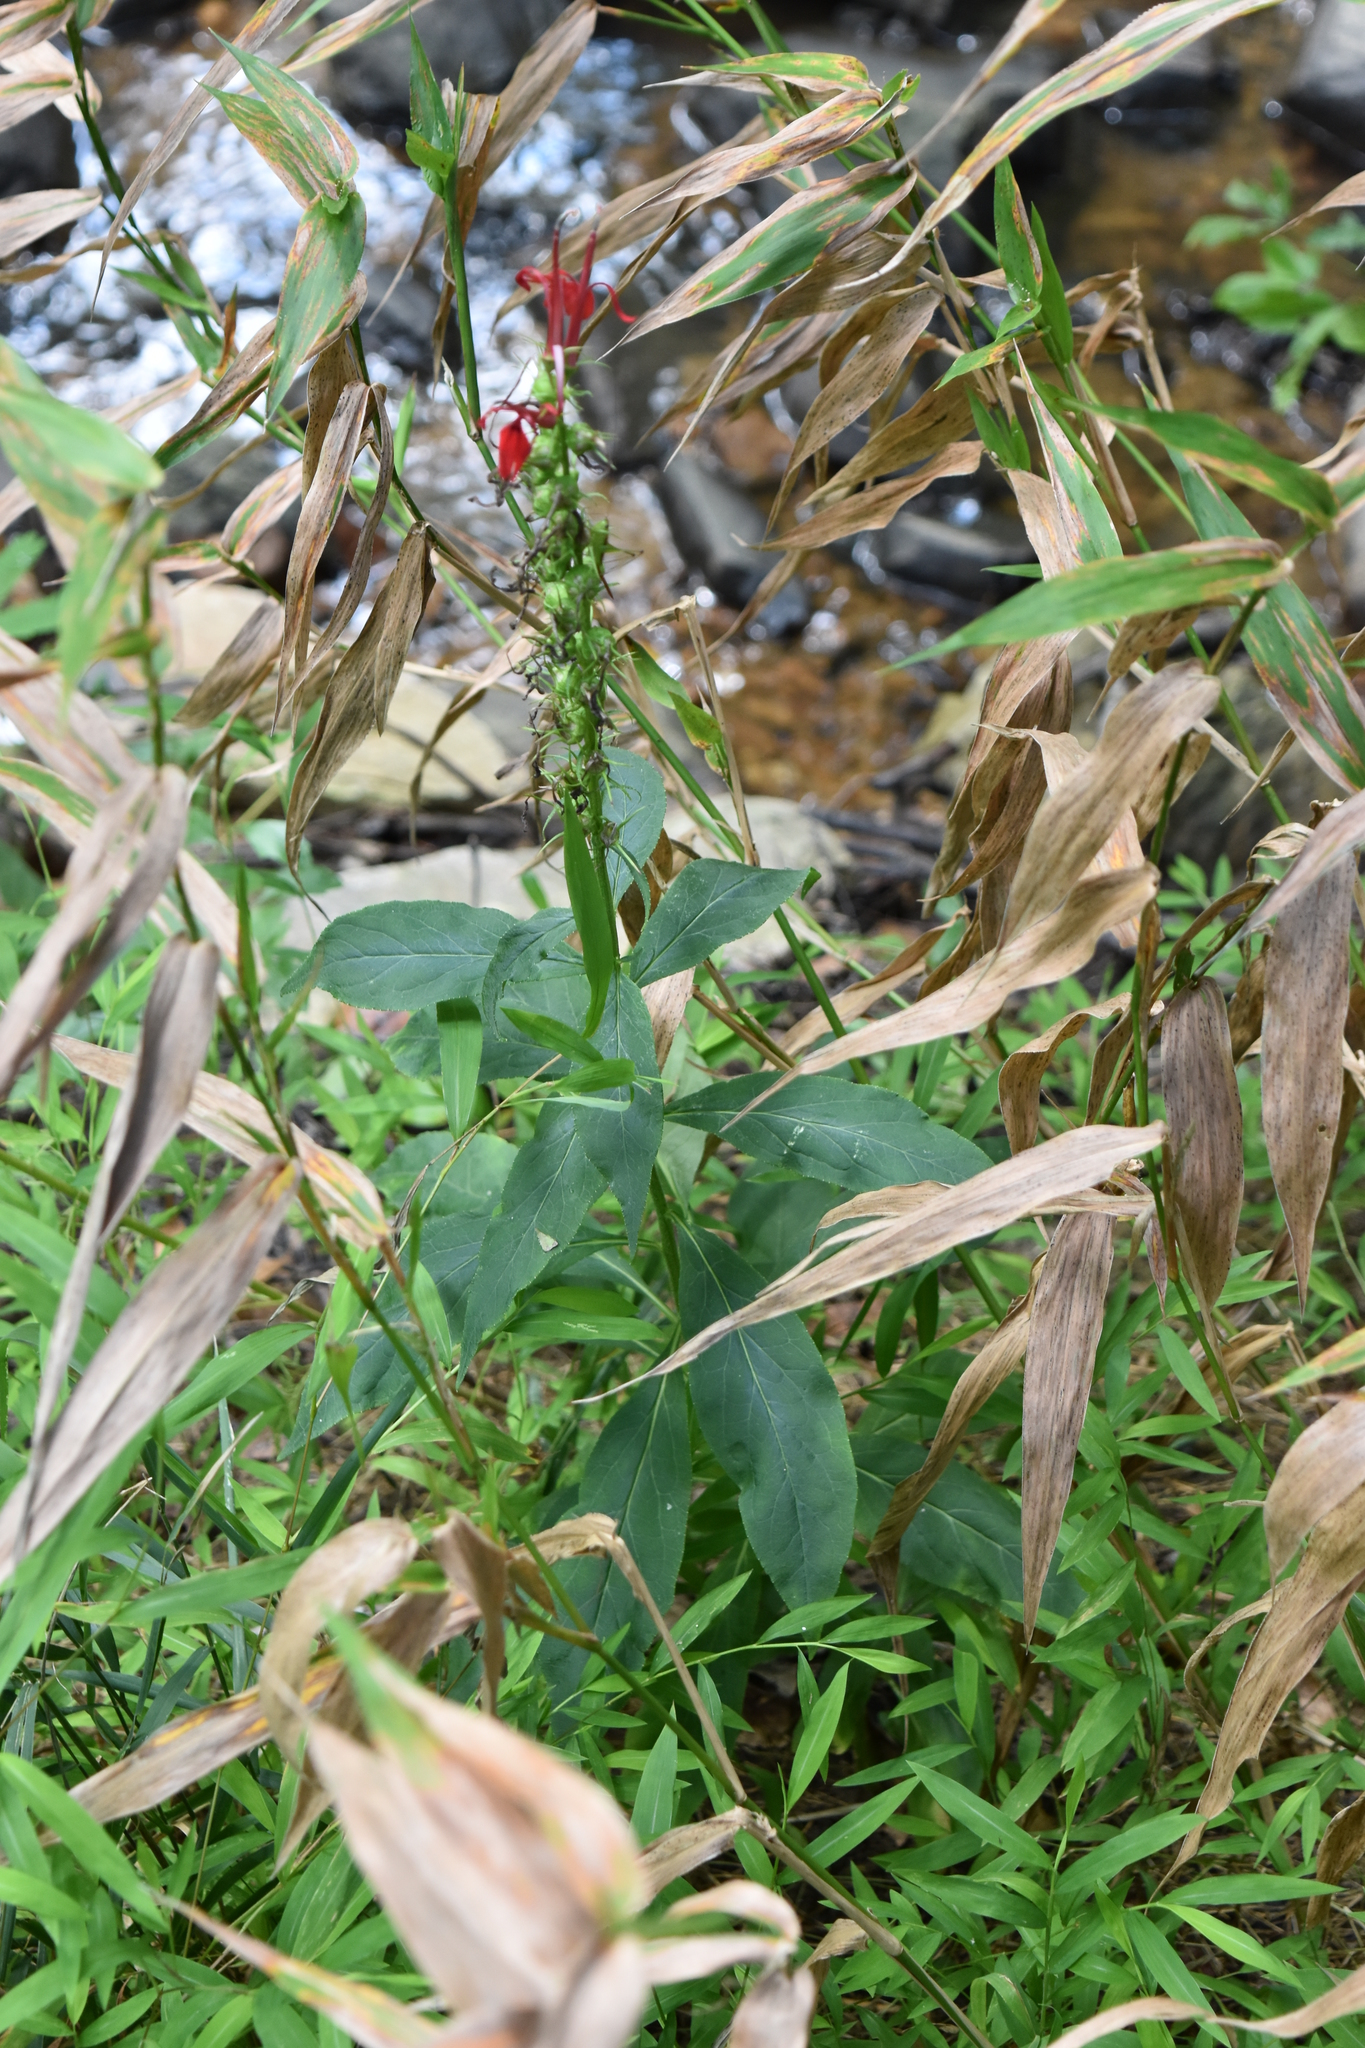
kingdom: Plantae
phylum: Tracheophyta
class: Magnoliopsida
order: Asterales
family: Campanulaceae
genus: Lobelia
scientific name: Lobelia cardinalis
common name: Cardinal flower
